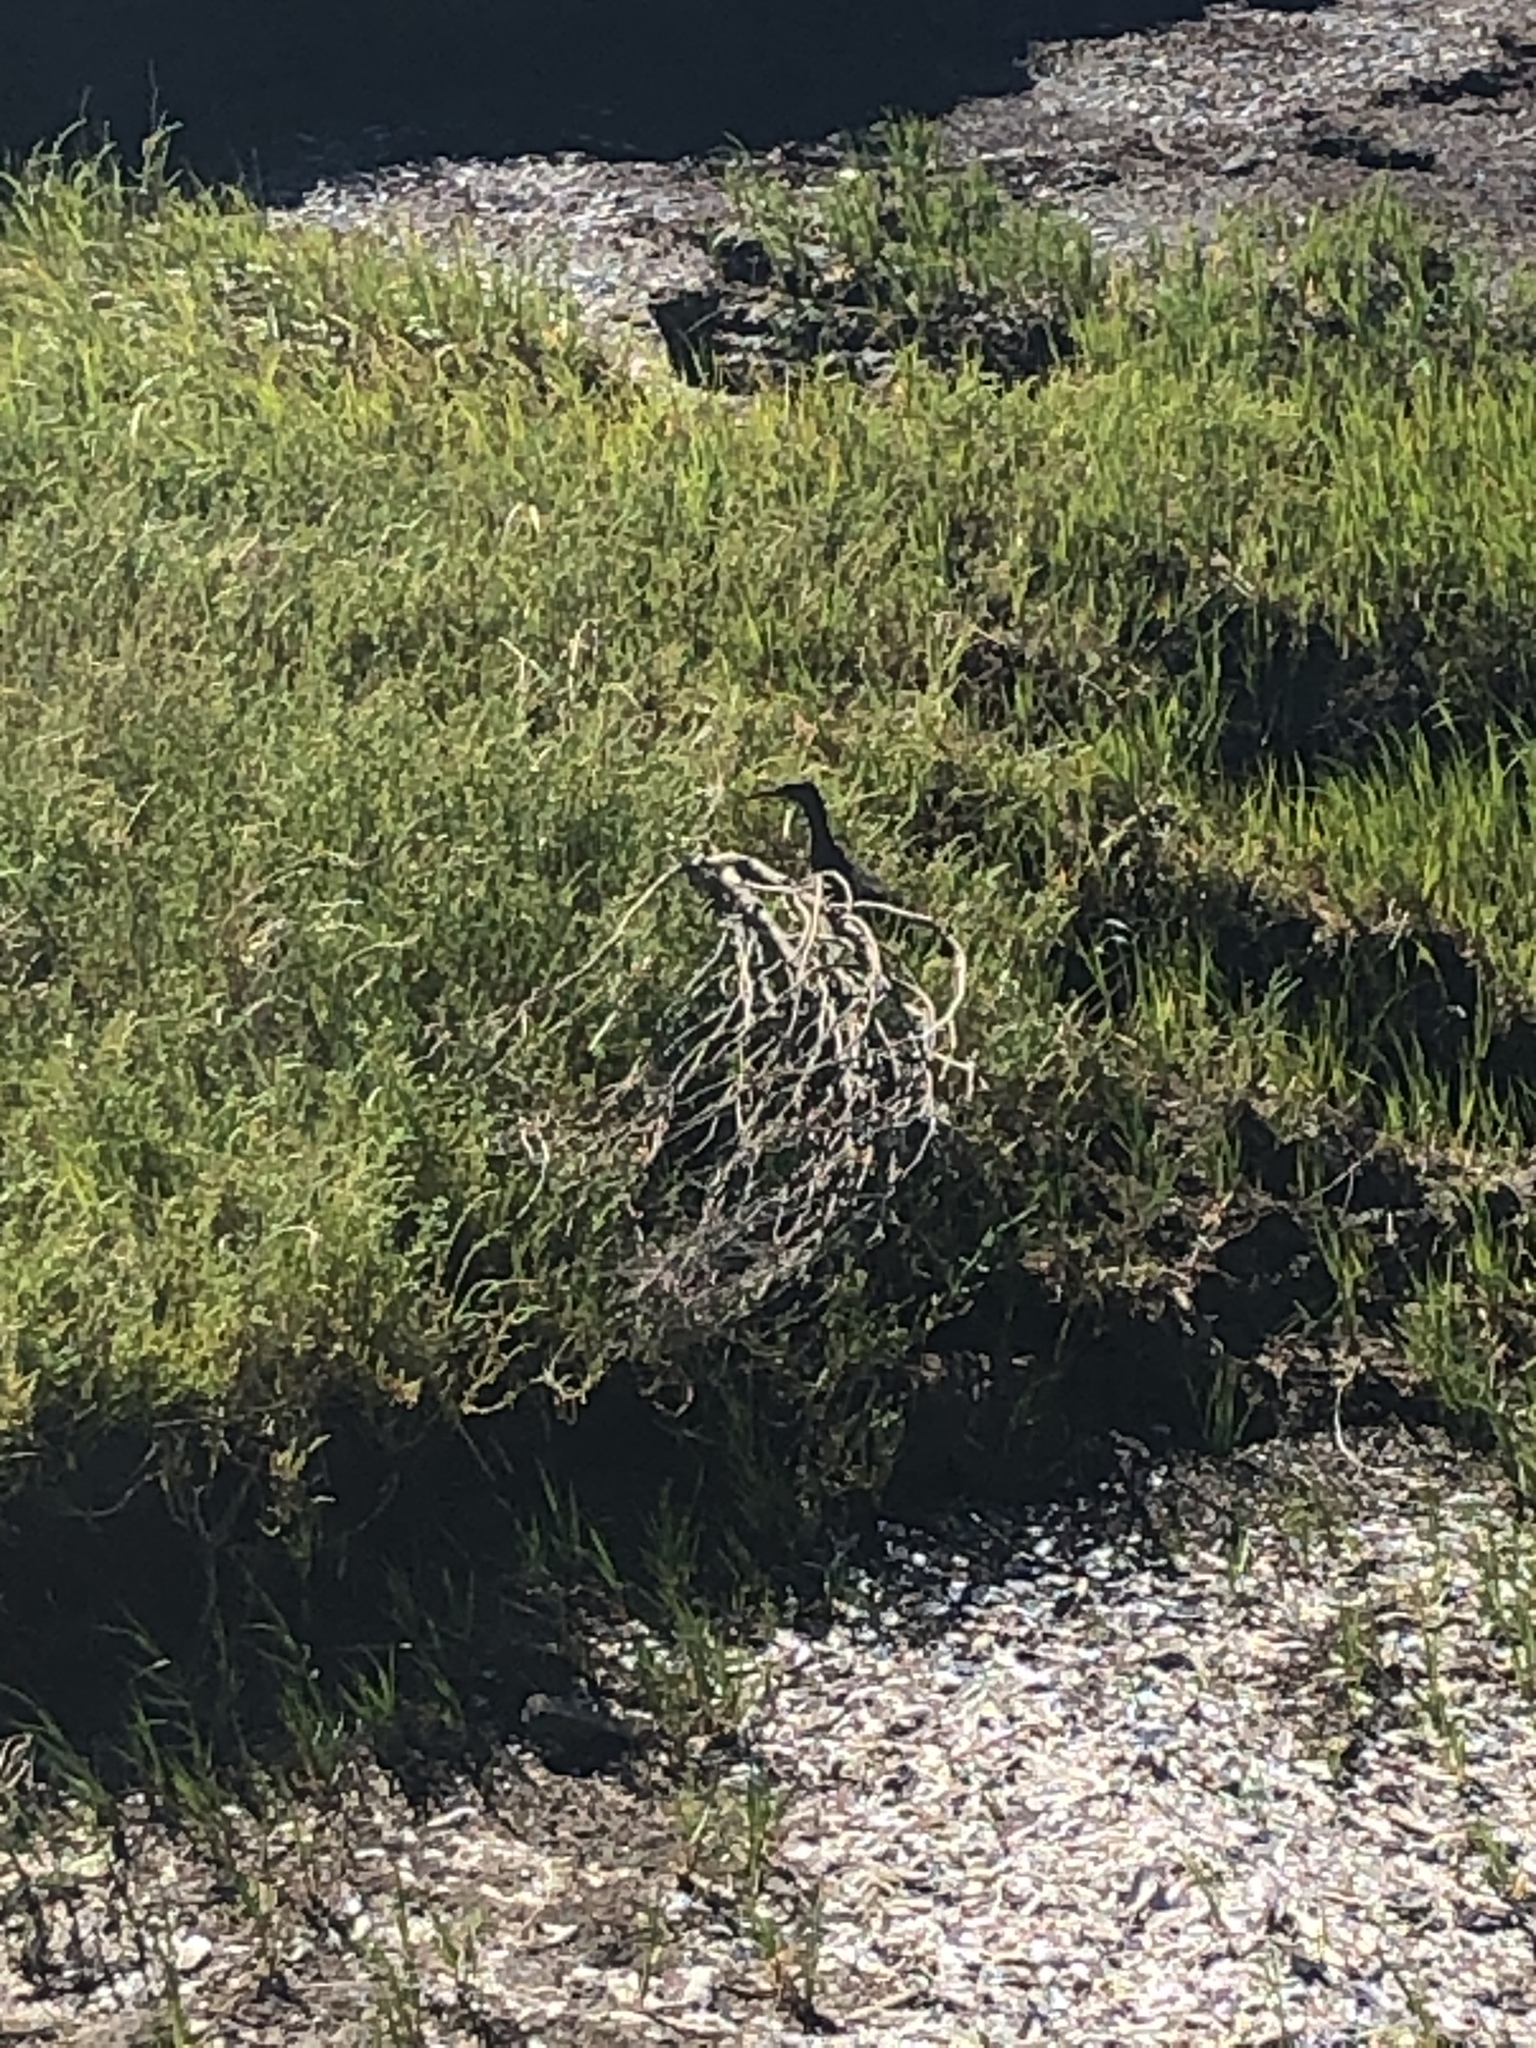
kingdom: Animalia
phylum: Chordata
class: Aves
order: Gruiformes
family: Rallidae
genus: Rallus
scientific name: Rallus obsoletus
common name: Ridgway's rail
